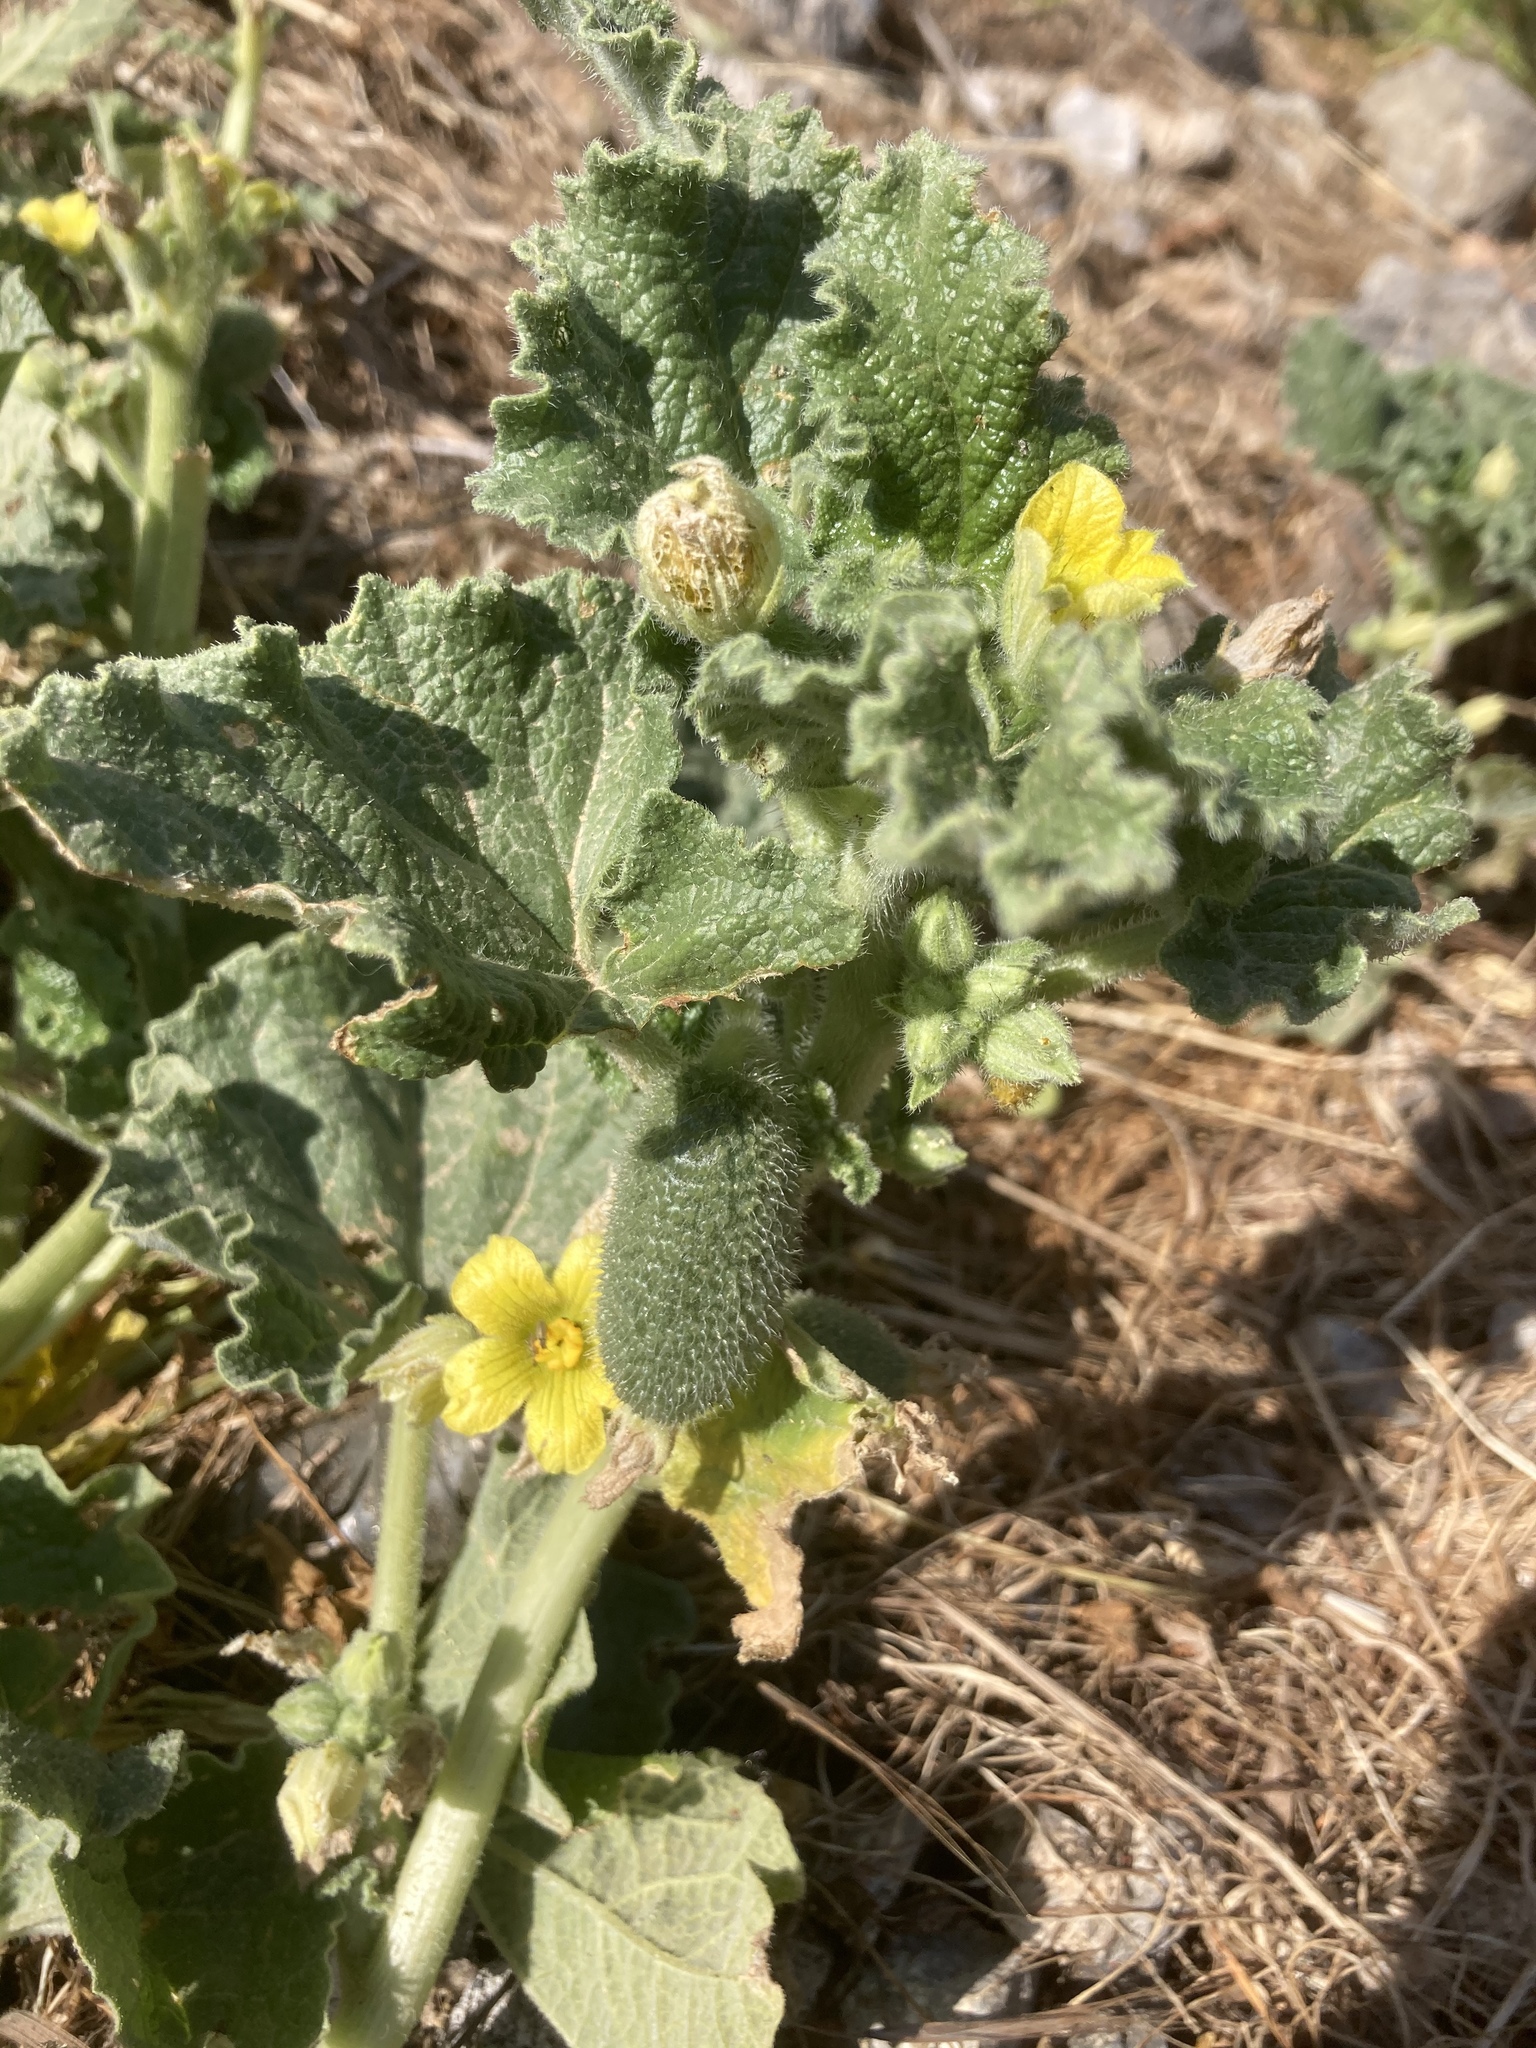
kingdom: Plantae
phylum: Tracheophyta
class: Magnoliopsida
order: Cucurbitales
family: Cucurbitaceae
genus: Ecballium
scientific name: Ecballium elaterium
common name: Squirting cucumber
